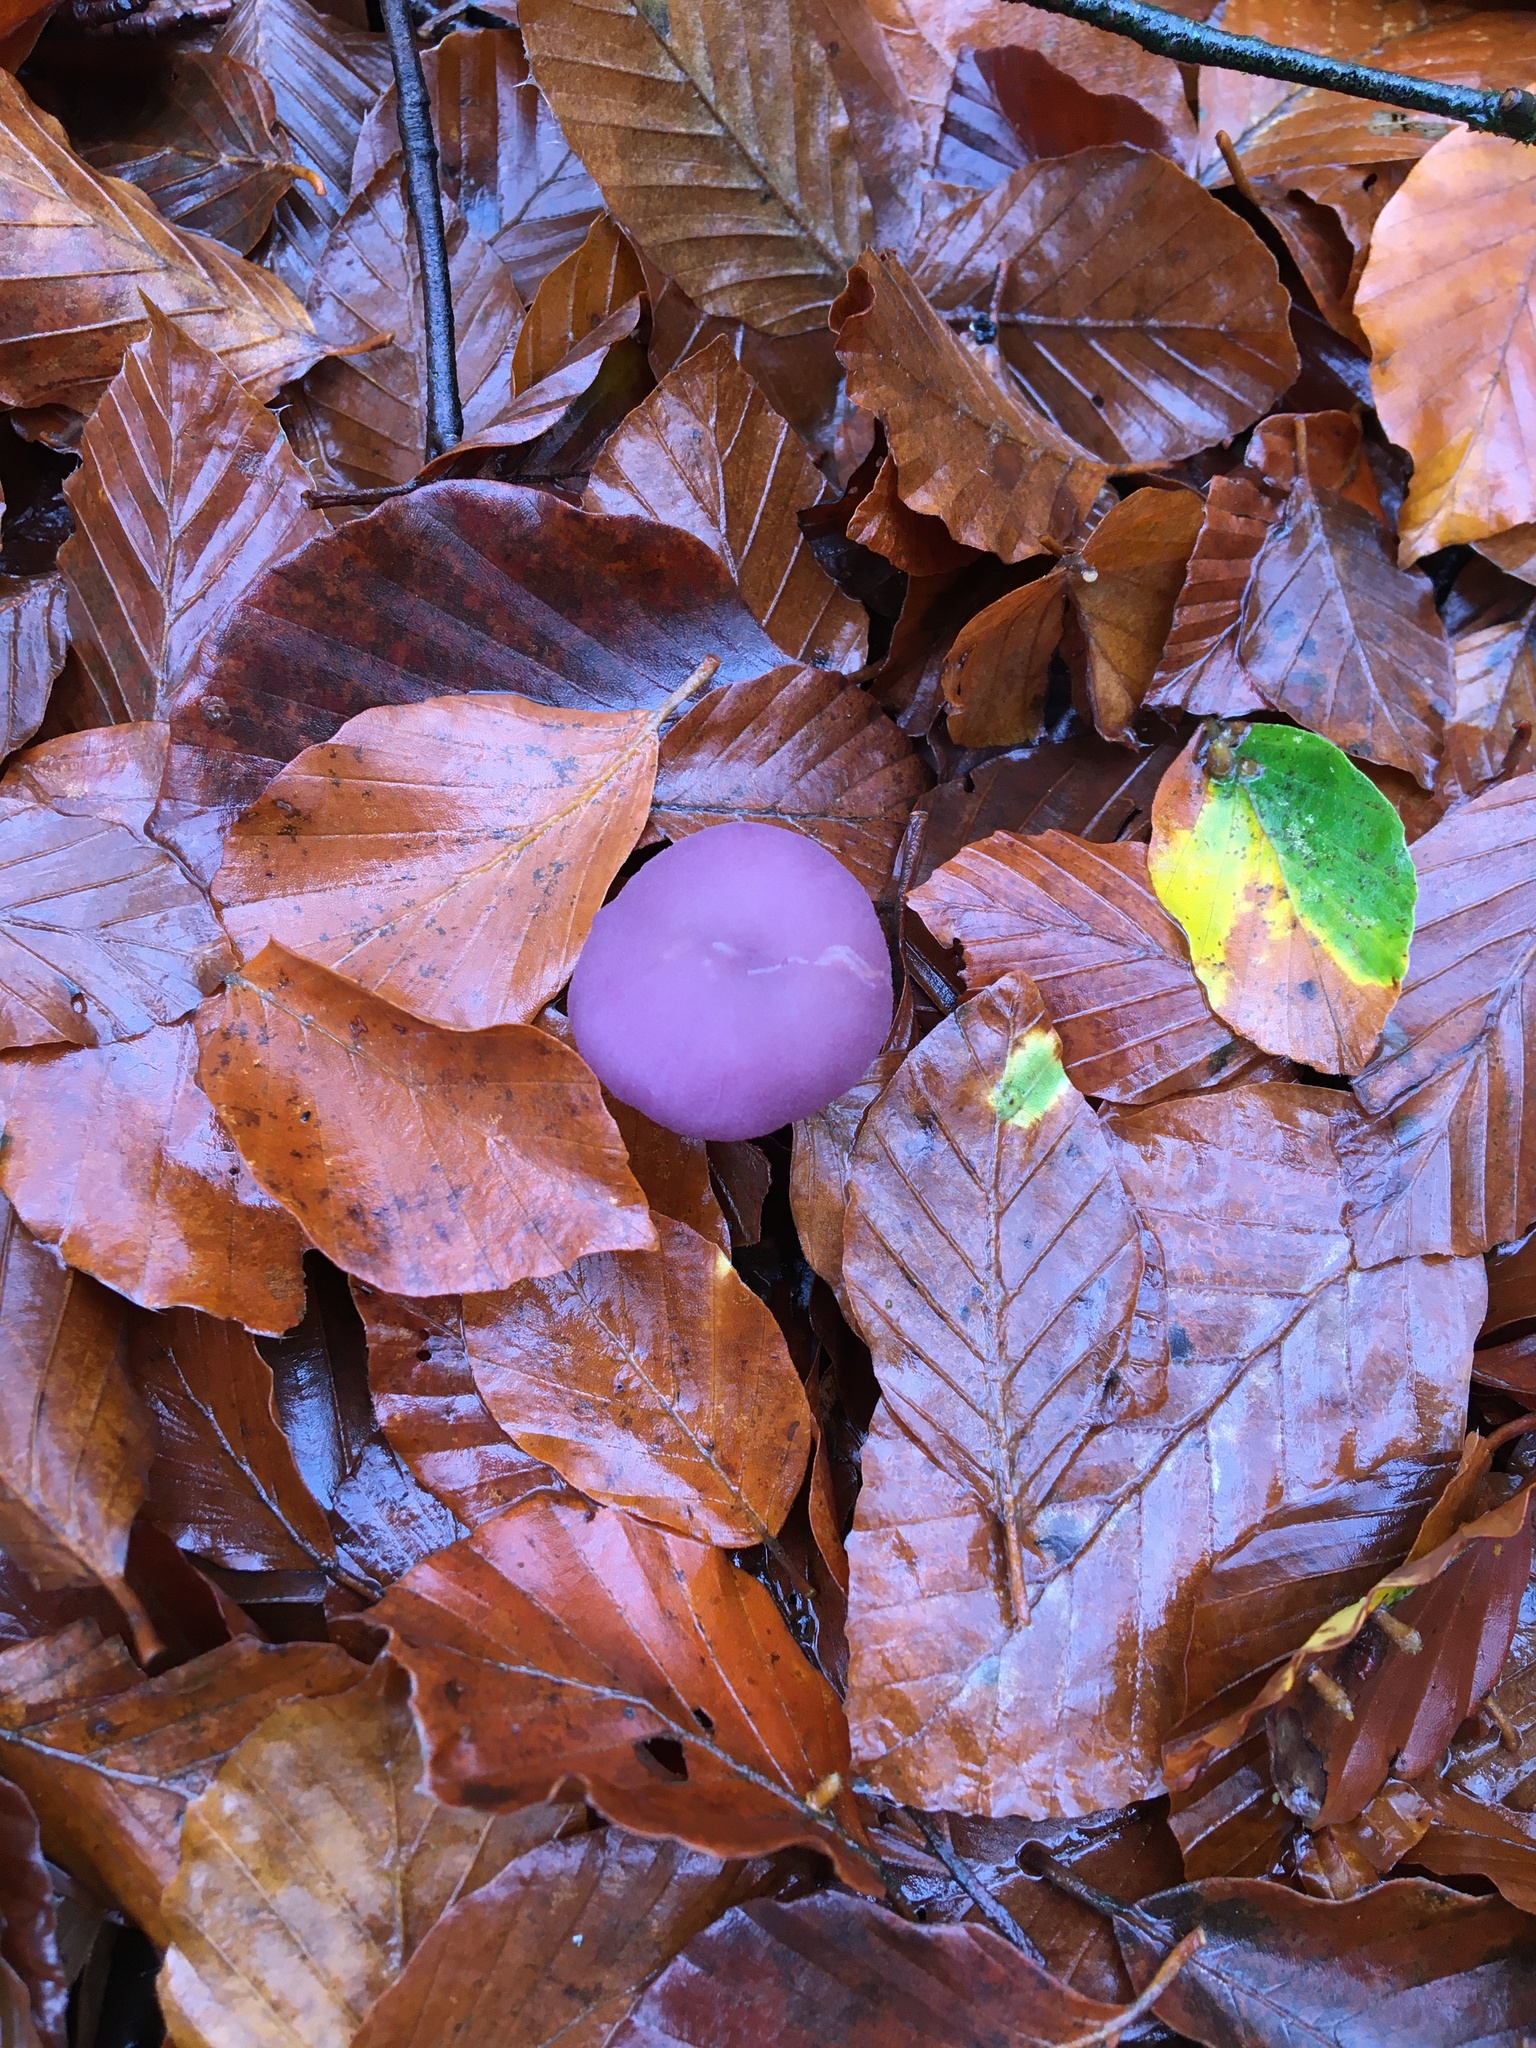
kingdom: Fungi
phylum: Basidiomycota
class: Agaricomycetes
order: Agaricales
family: Hydnangiaceae
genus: Laccaria
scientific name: Laccaria amethystina
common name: Amethyst deceiver
